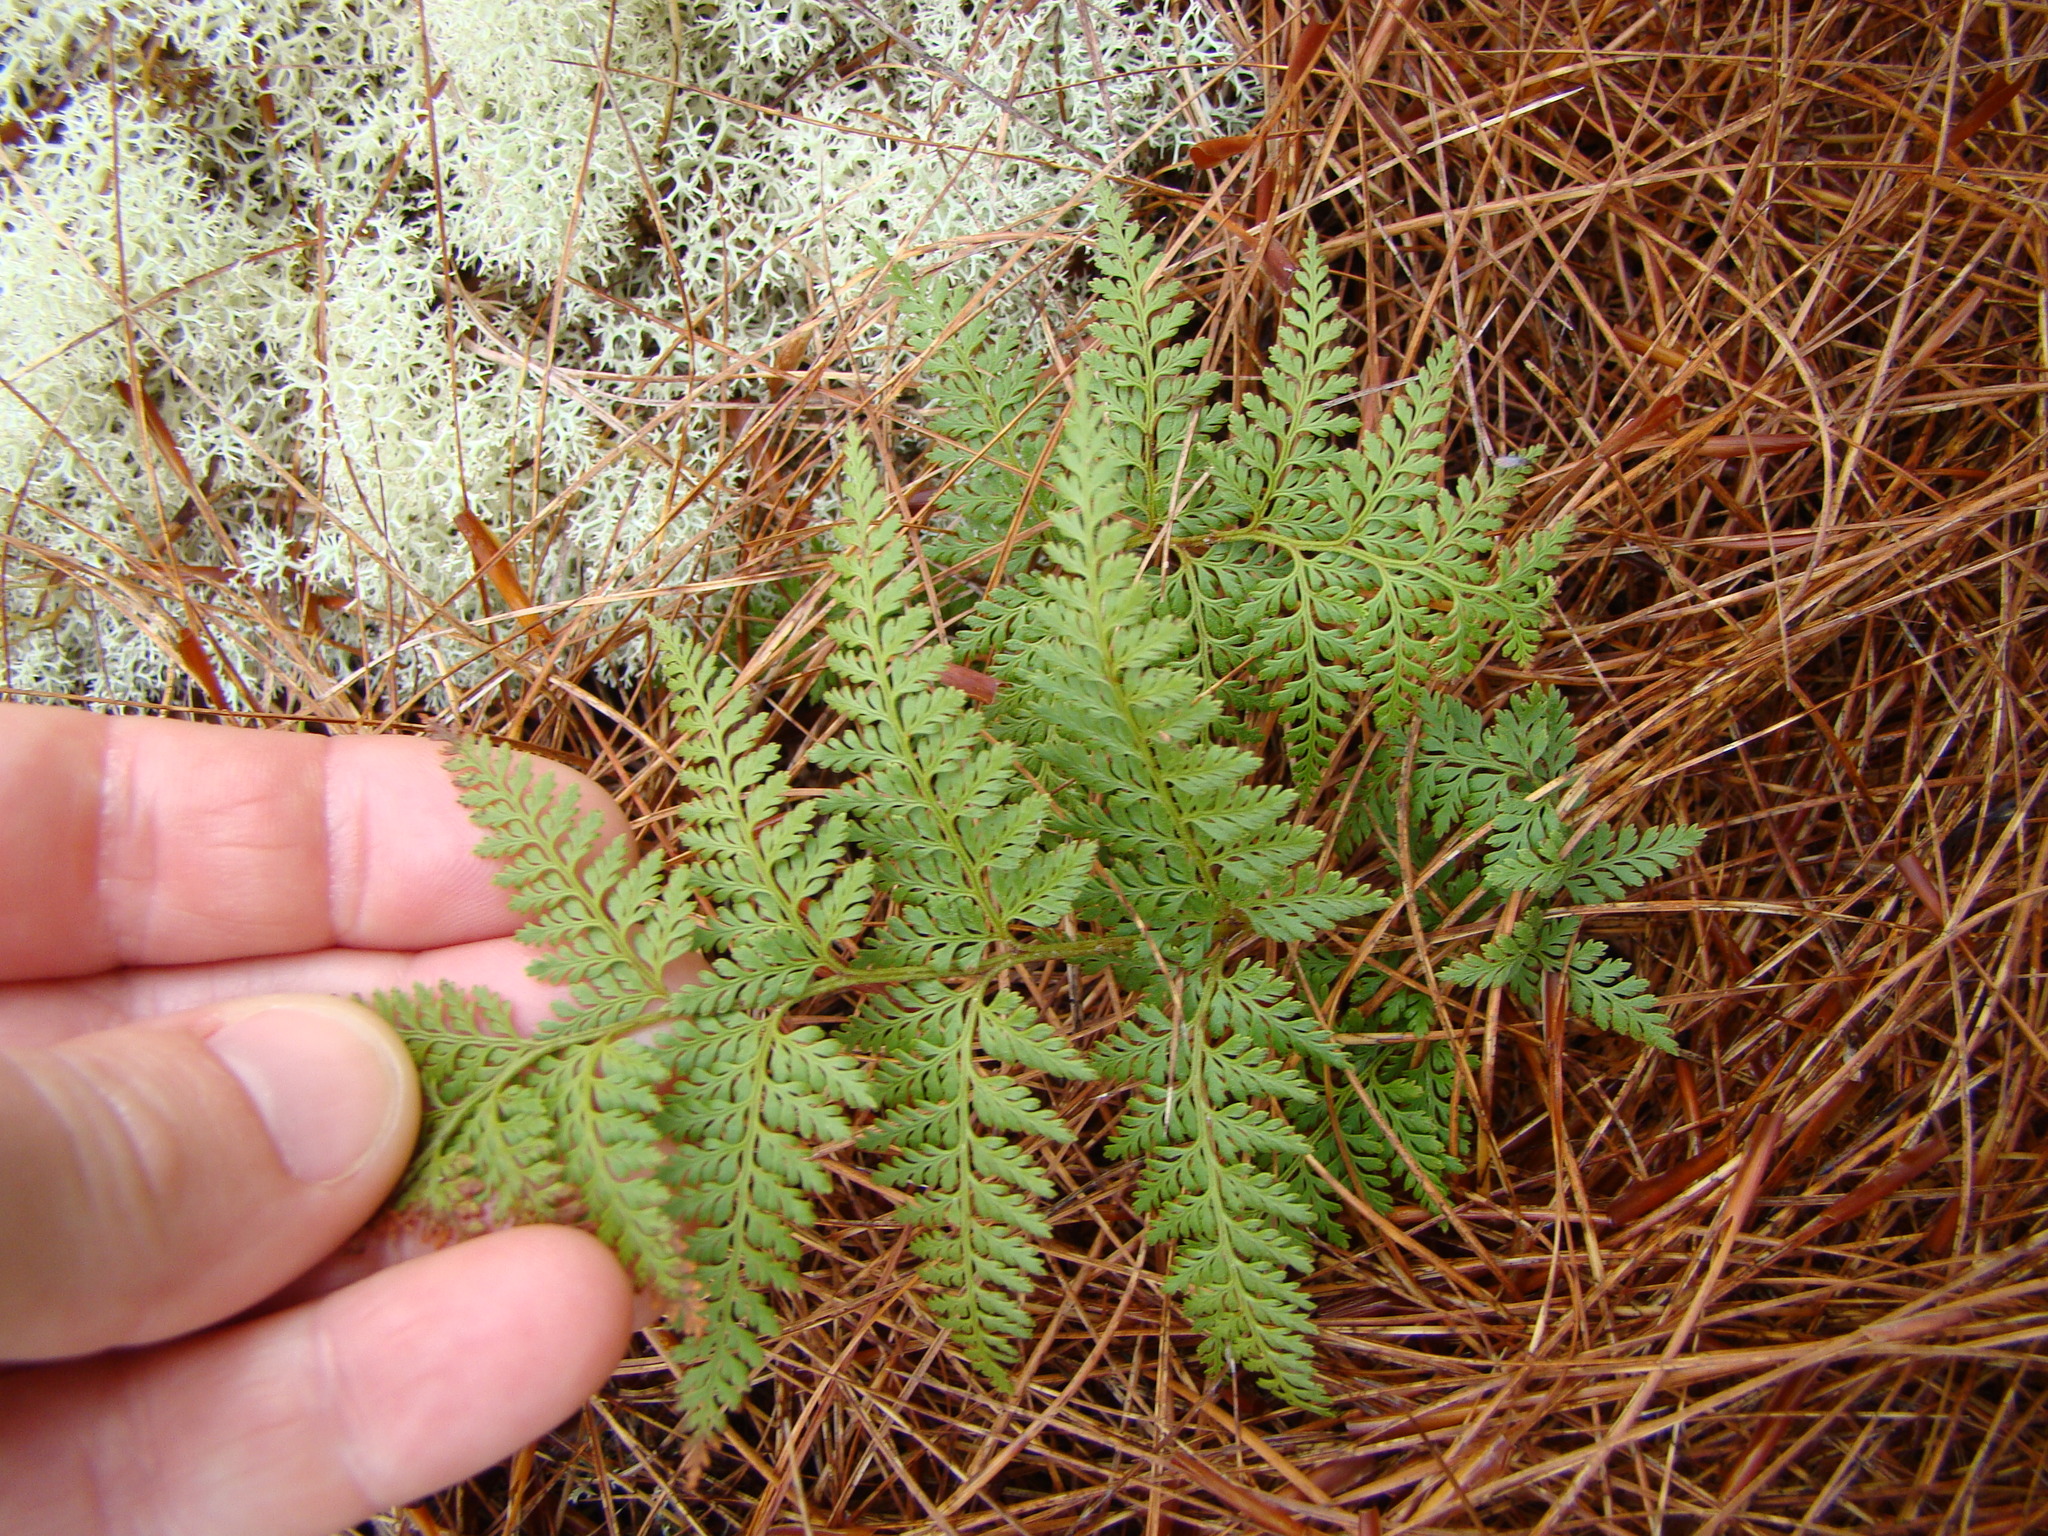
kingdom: Plantae
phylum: Tracheophyta
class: Polypodiopsida
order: Polypodiales
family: Dennstaedtiaceae
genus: Paesia
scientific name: Paesia scaberula
